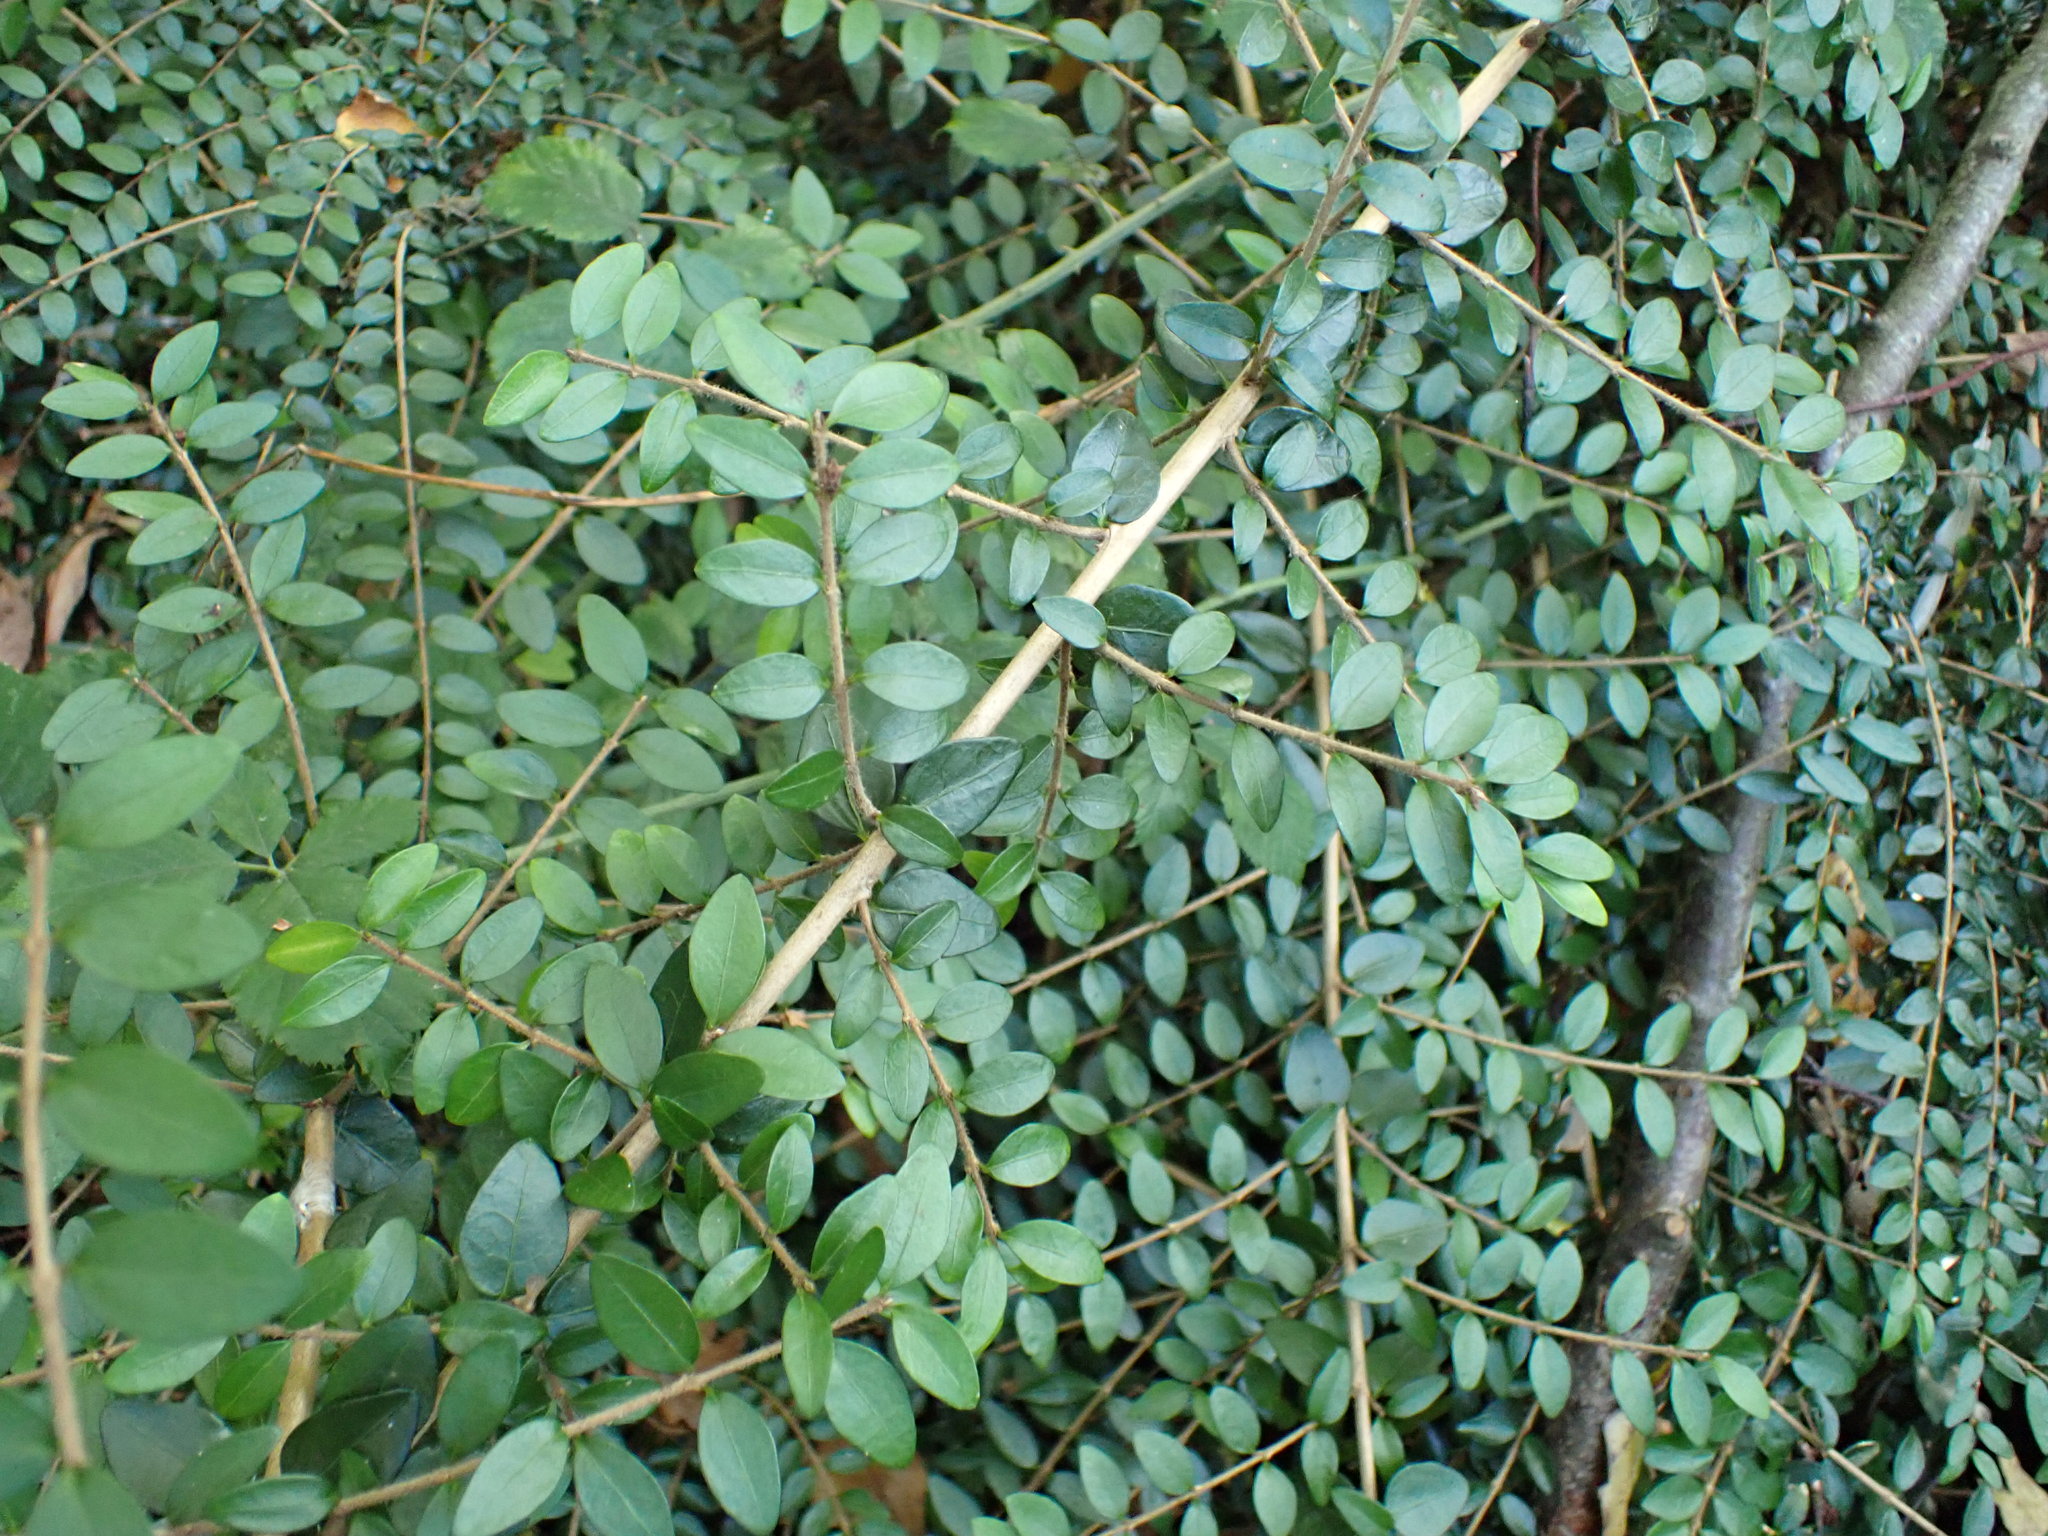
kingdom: Plantae
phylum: Tracheophyta
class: Magnoliopsida
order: Dipsacales
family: Caprifoliaceae
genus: Lonicera
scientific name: Lonicera pileata
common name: Box-leaved honeysuckle
